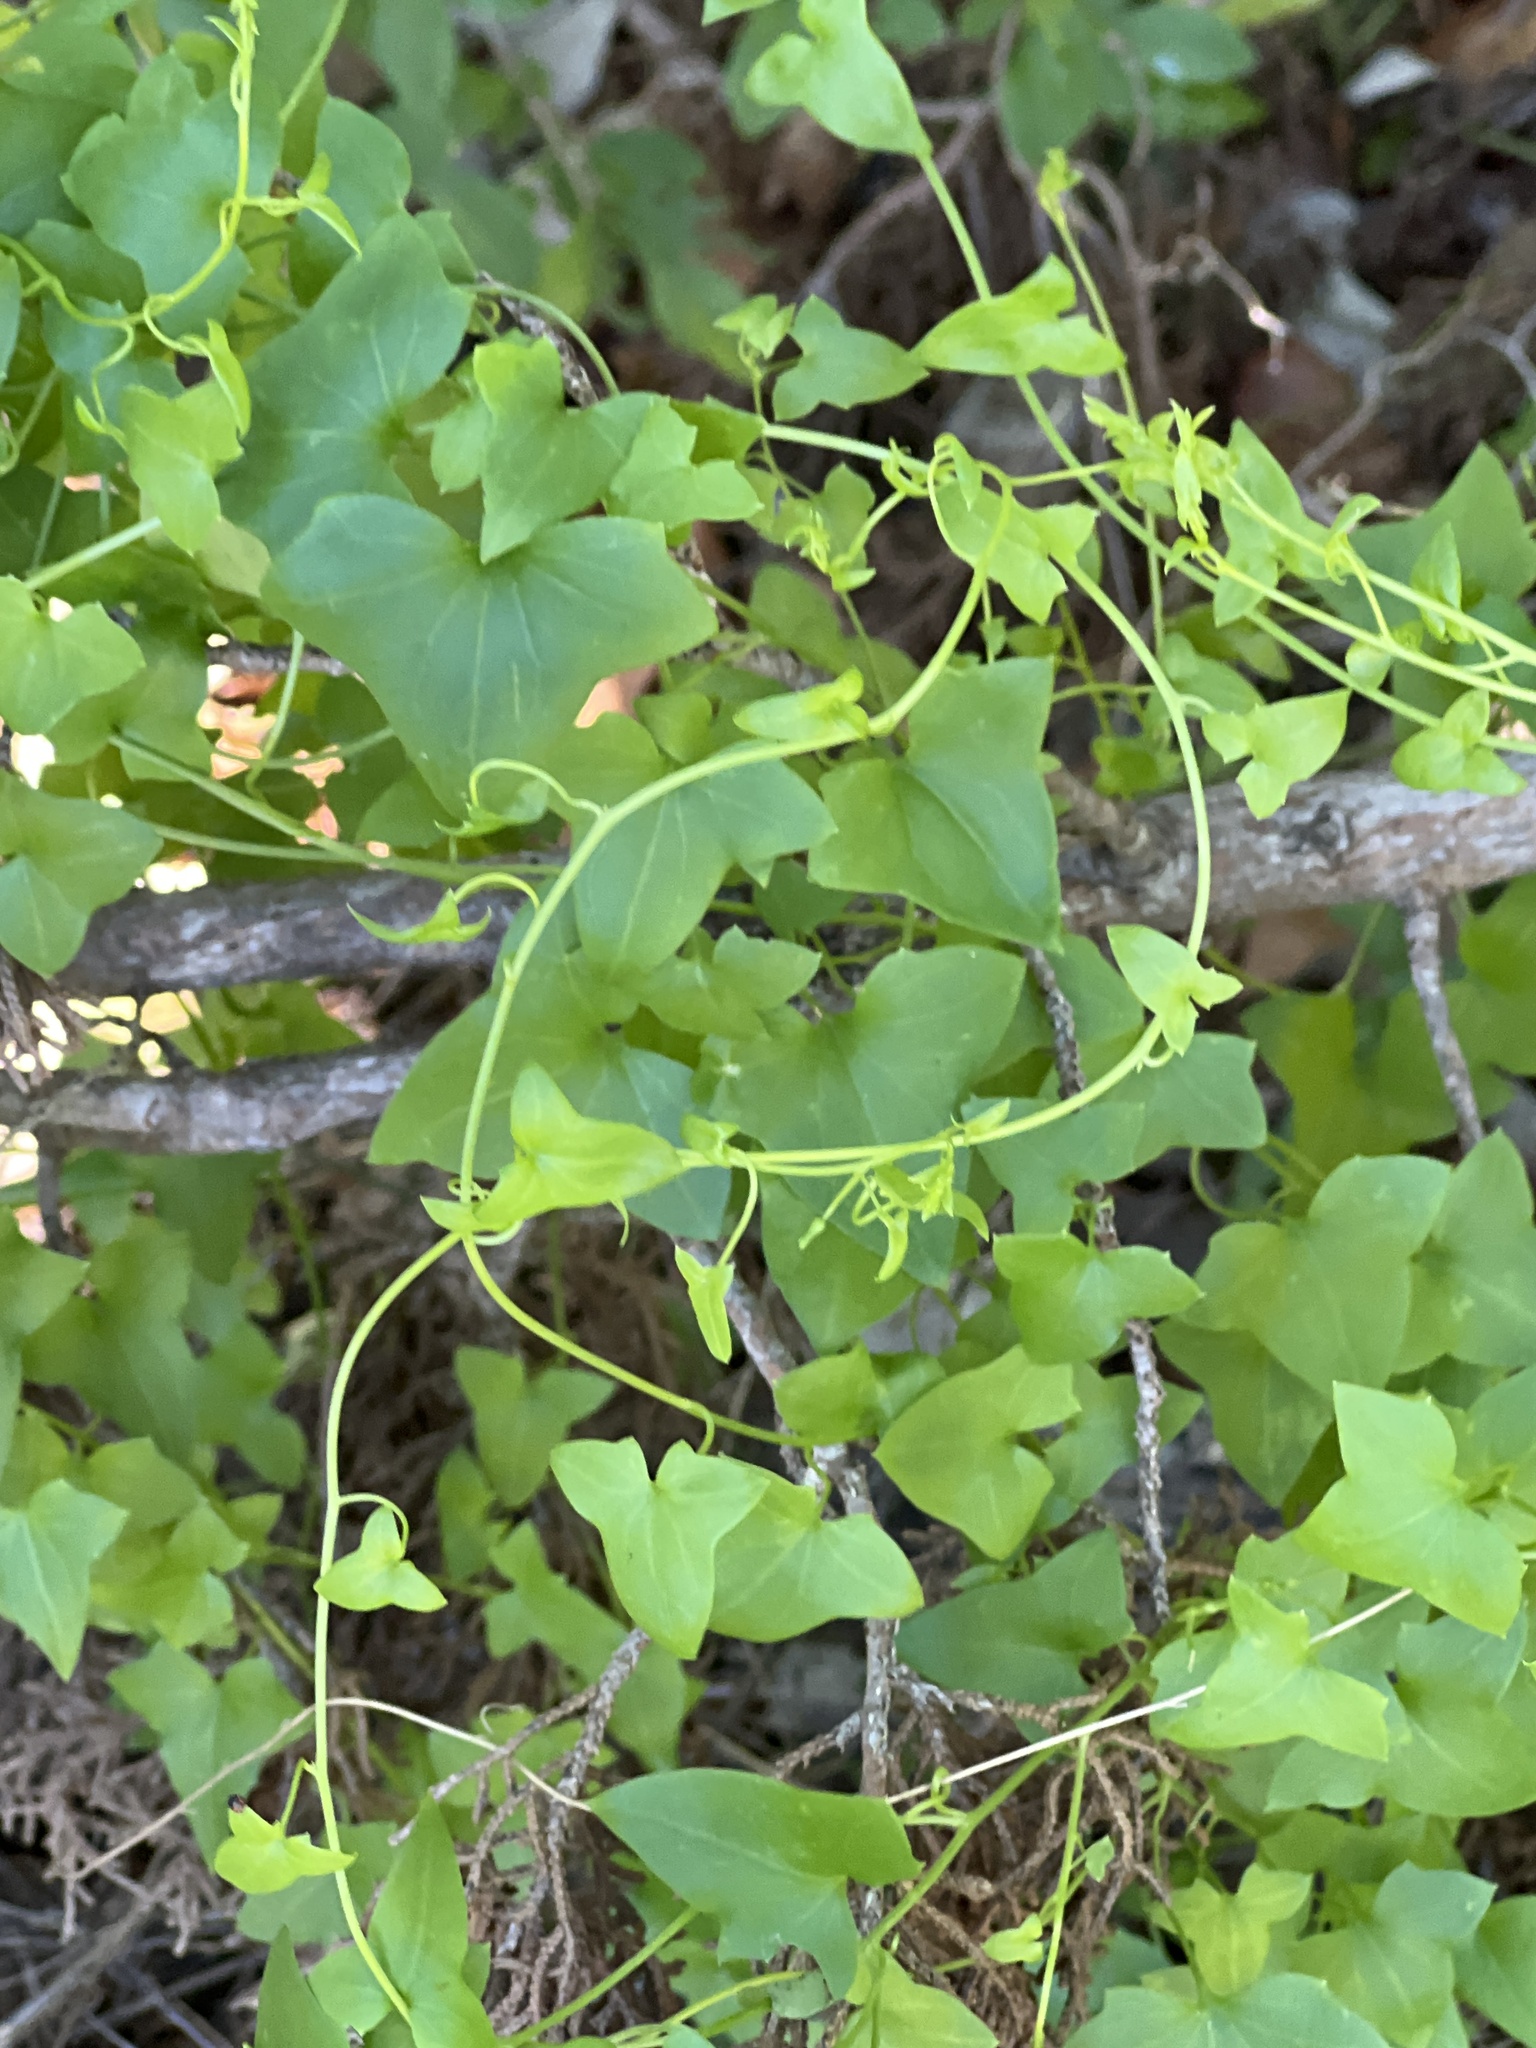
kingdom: Plantae
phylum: Tracheophyta
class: Magnoliopsida
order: Cucurbitales
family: Cucurbitaceae
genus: Melothria
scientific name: Melothria pendula
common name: Creeping-cucumber
